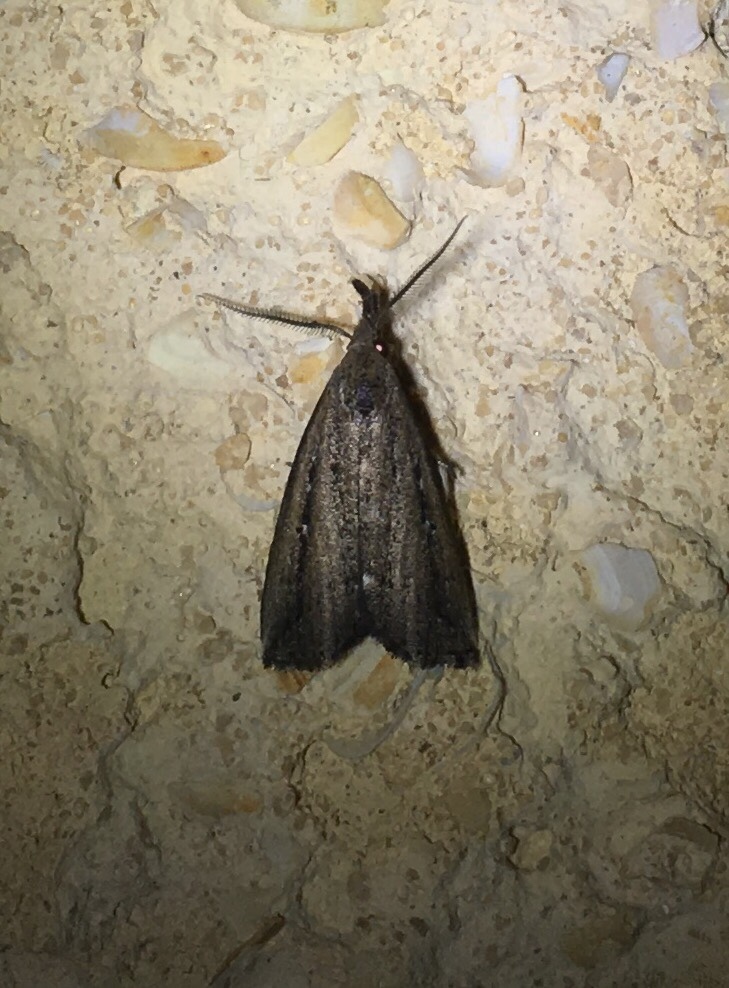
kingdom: Animalia
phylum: Arthropoda
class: Insecta
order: Lepidoptera
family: Erebidae
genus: Macrochilo
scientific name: Macrochilo orciferalis
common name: Bronzy owlet
